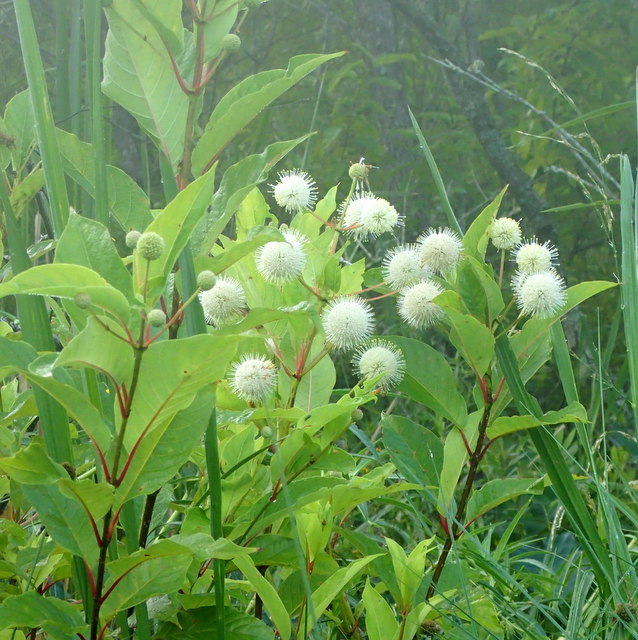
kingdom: Plantae
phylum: Tracheophyta
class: Magnoliopsida
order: Gentianales
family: Rubiaceae
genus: Cephalanthus
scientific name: Cephalanthus occidentalis
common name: Button-willow
